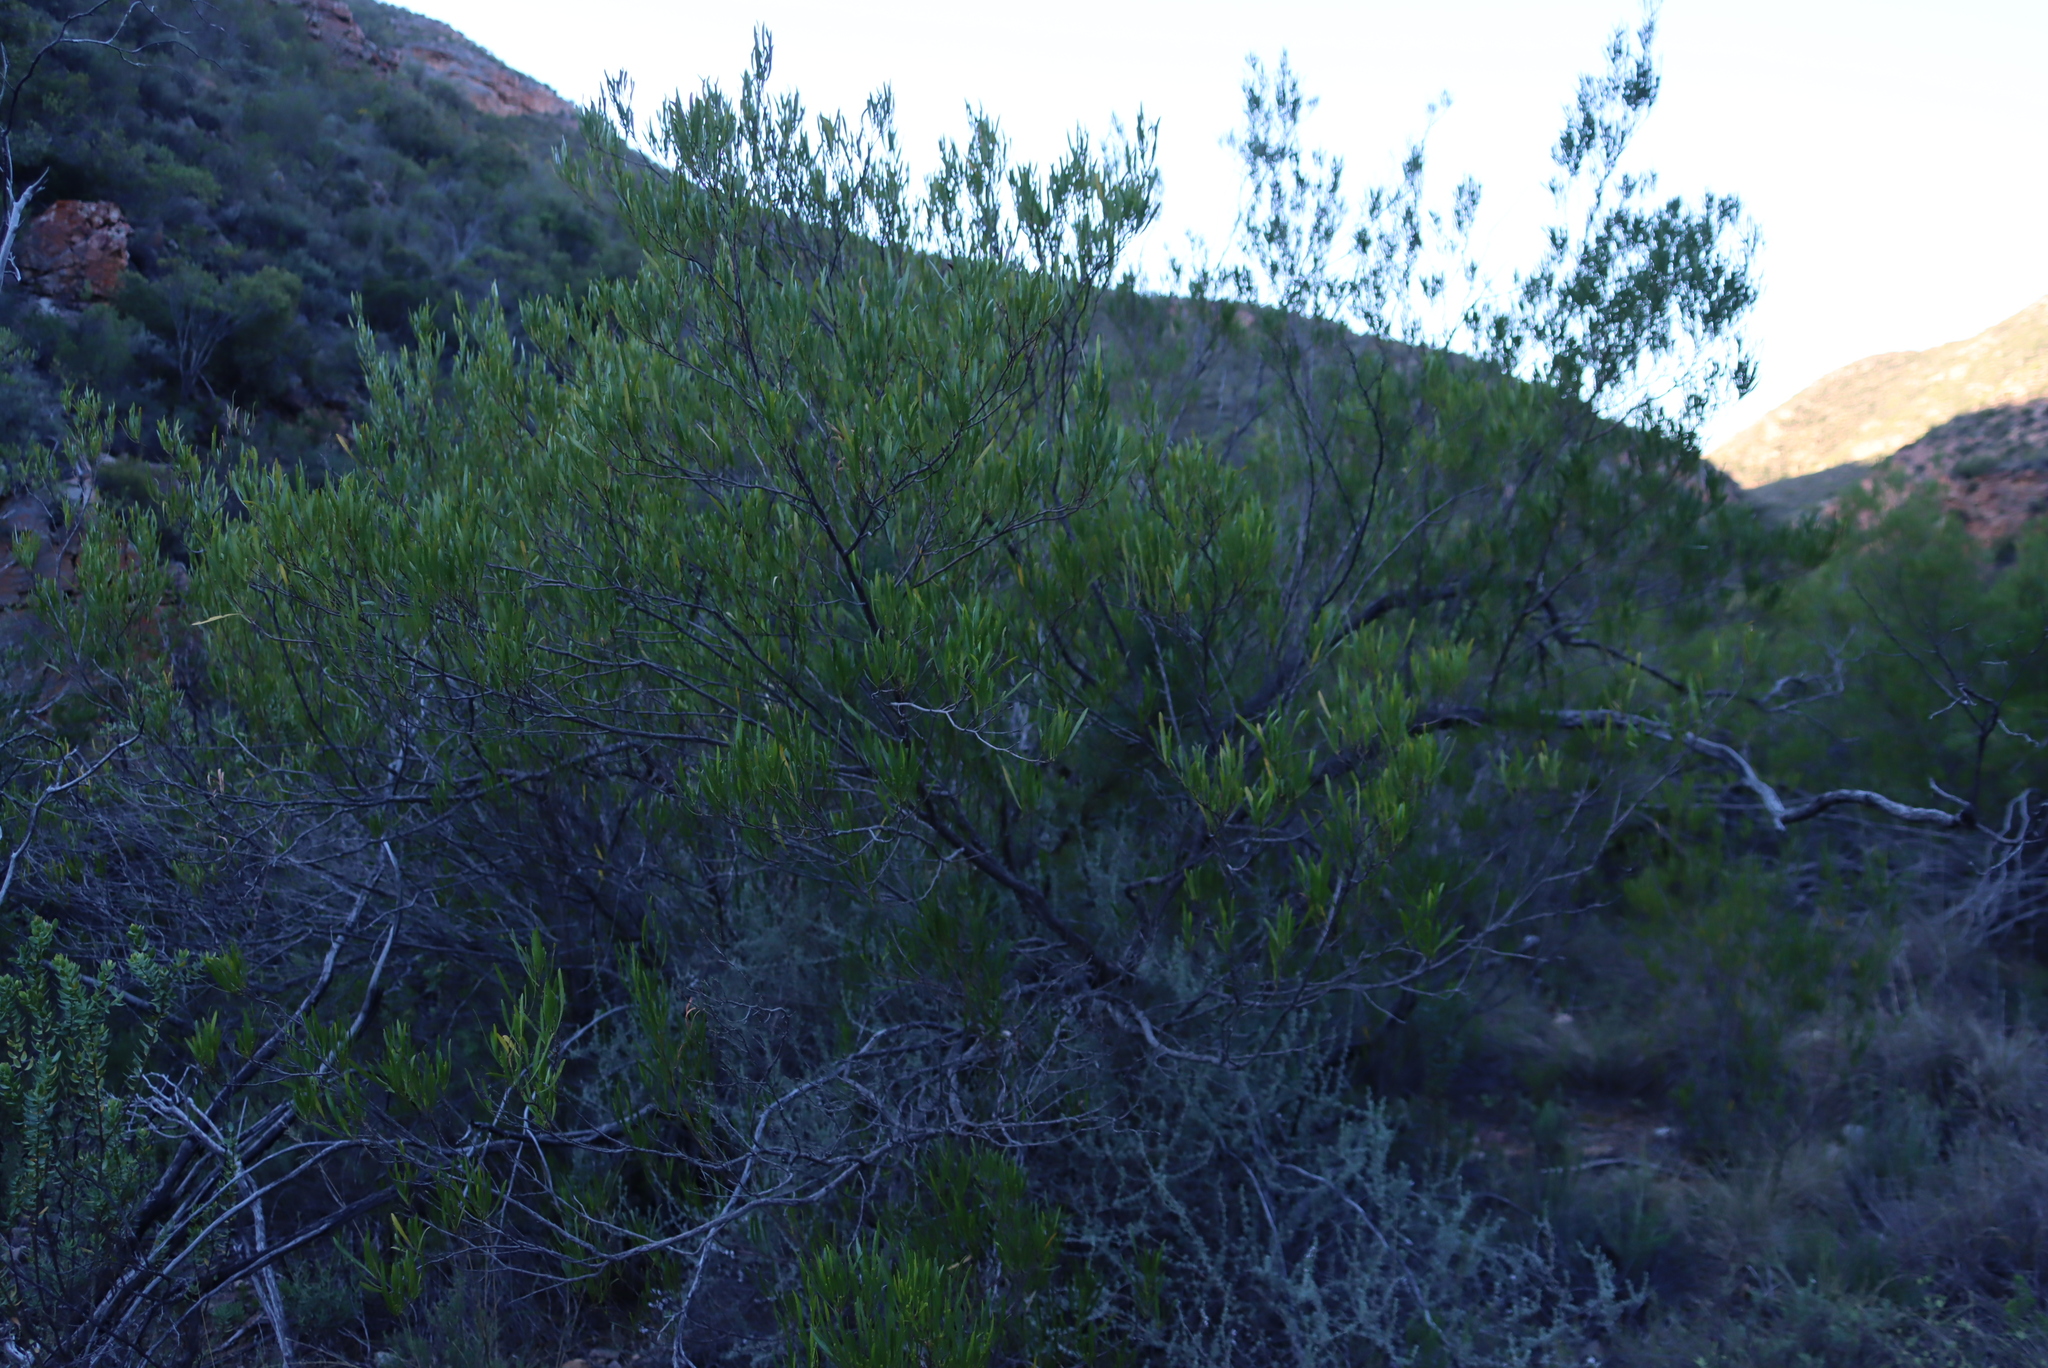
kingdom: Plantae
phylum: Tracheophyta
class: Magnoliopsida
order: Sapindales
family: Sapindaceae
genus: Dodonaea
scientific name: Dodonaea viscosa
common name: Hopbush
